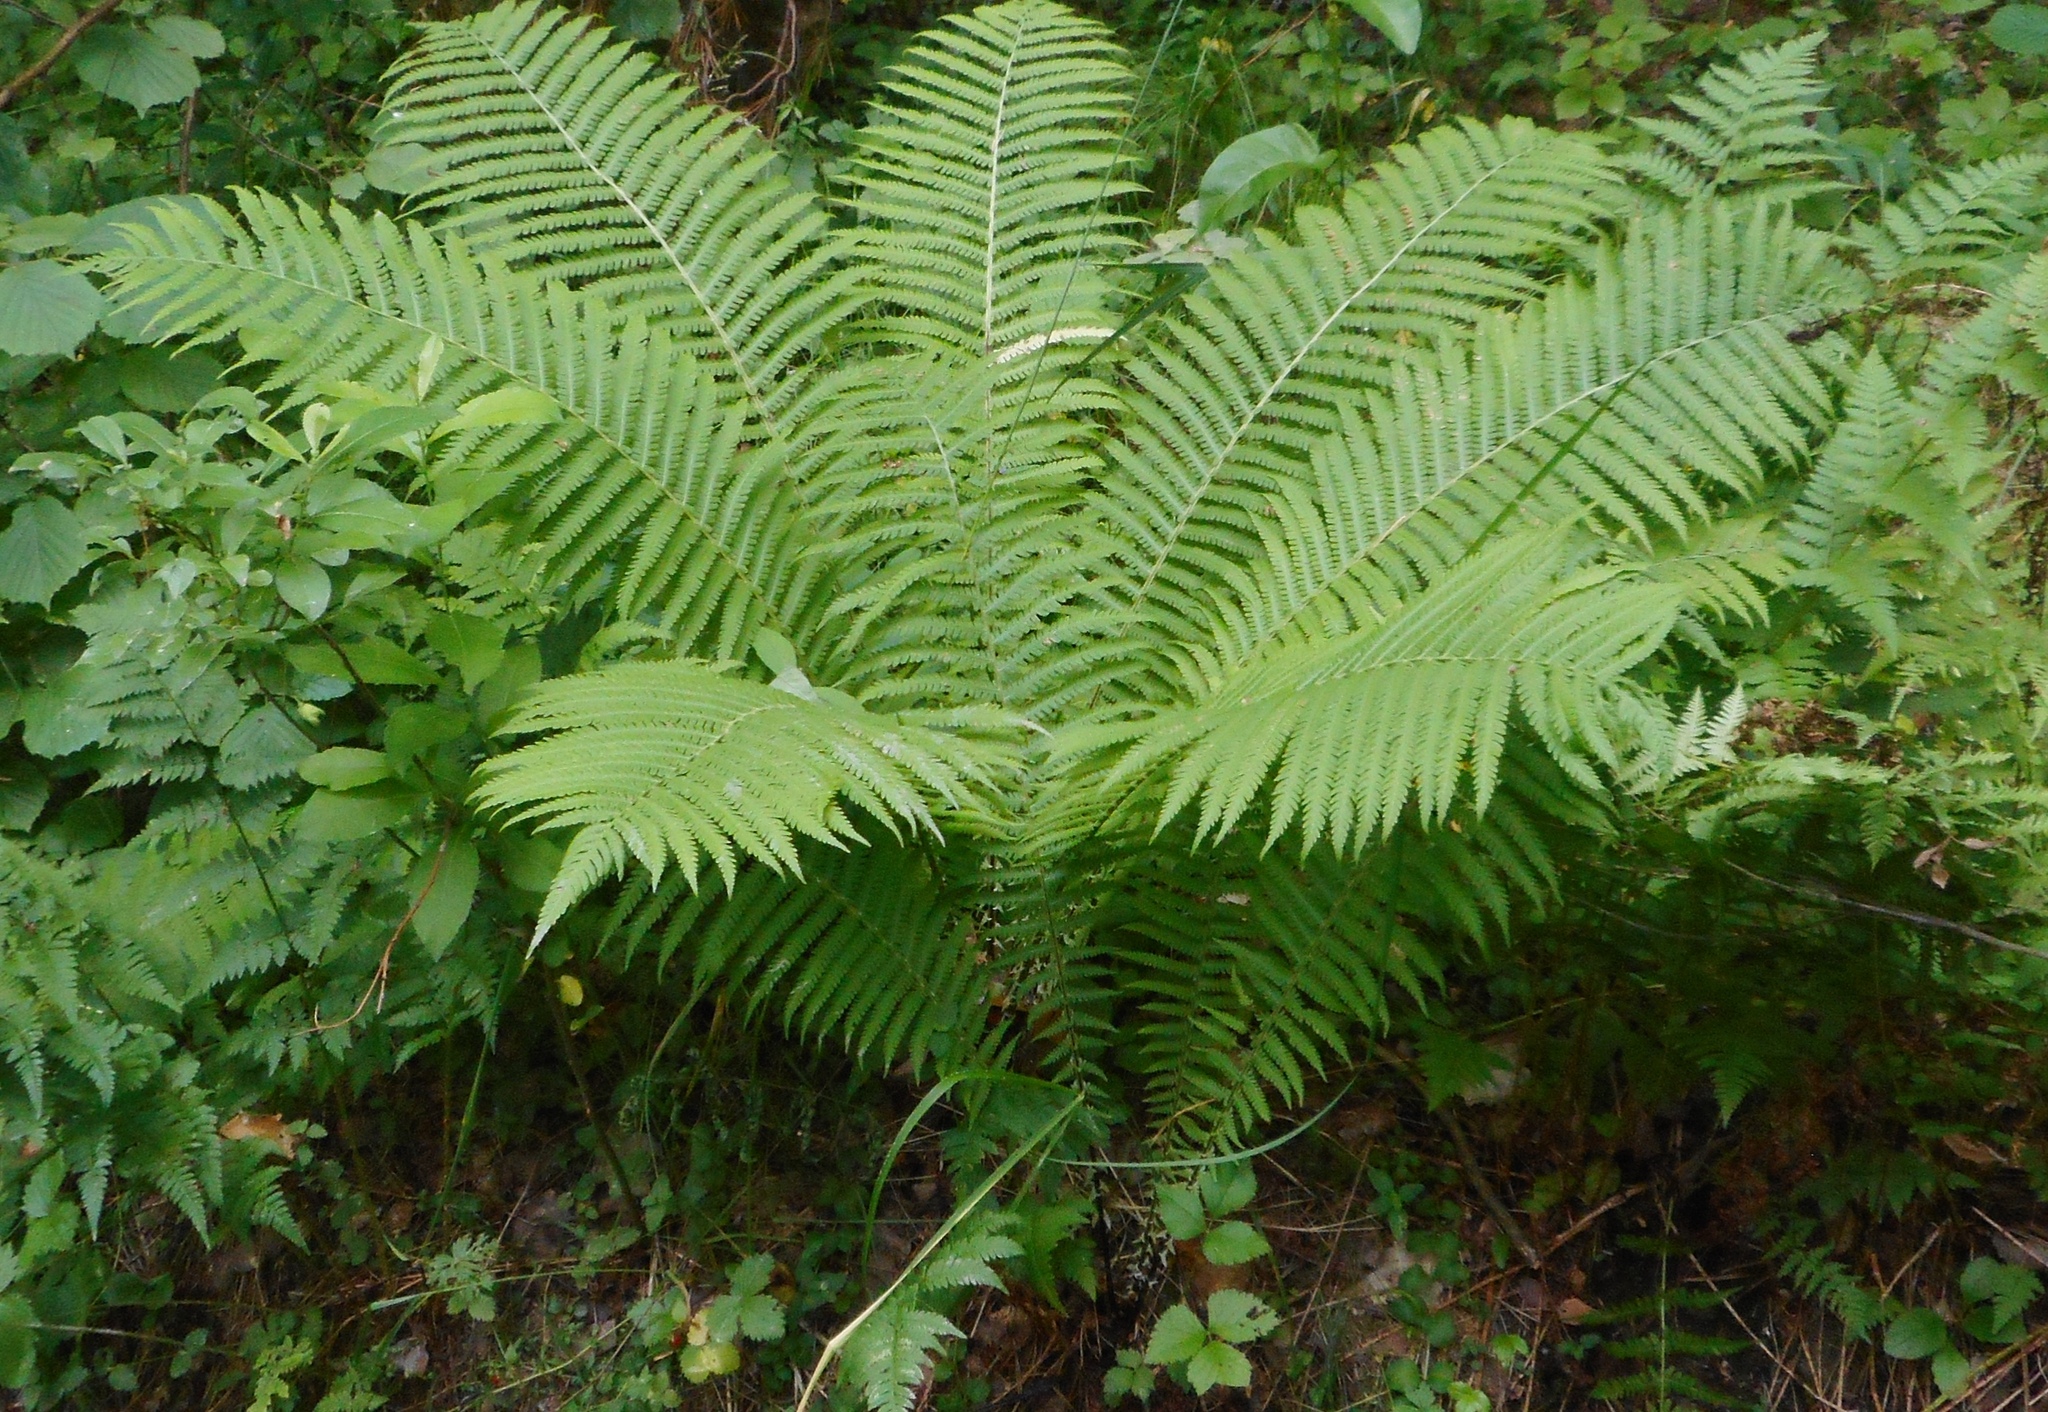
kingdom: Plantae
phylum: Tracheophyta
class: Polypodiopsida
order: Polypodiales
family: Onocleaceae
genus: Matteuccia
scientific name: Matteuccia struthiopteris
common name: Ostrich fern
